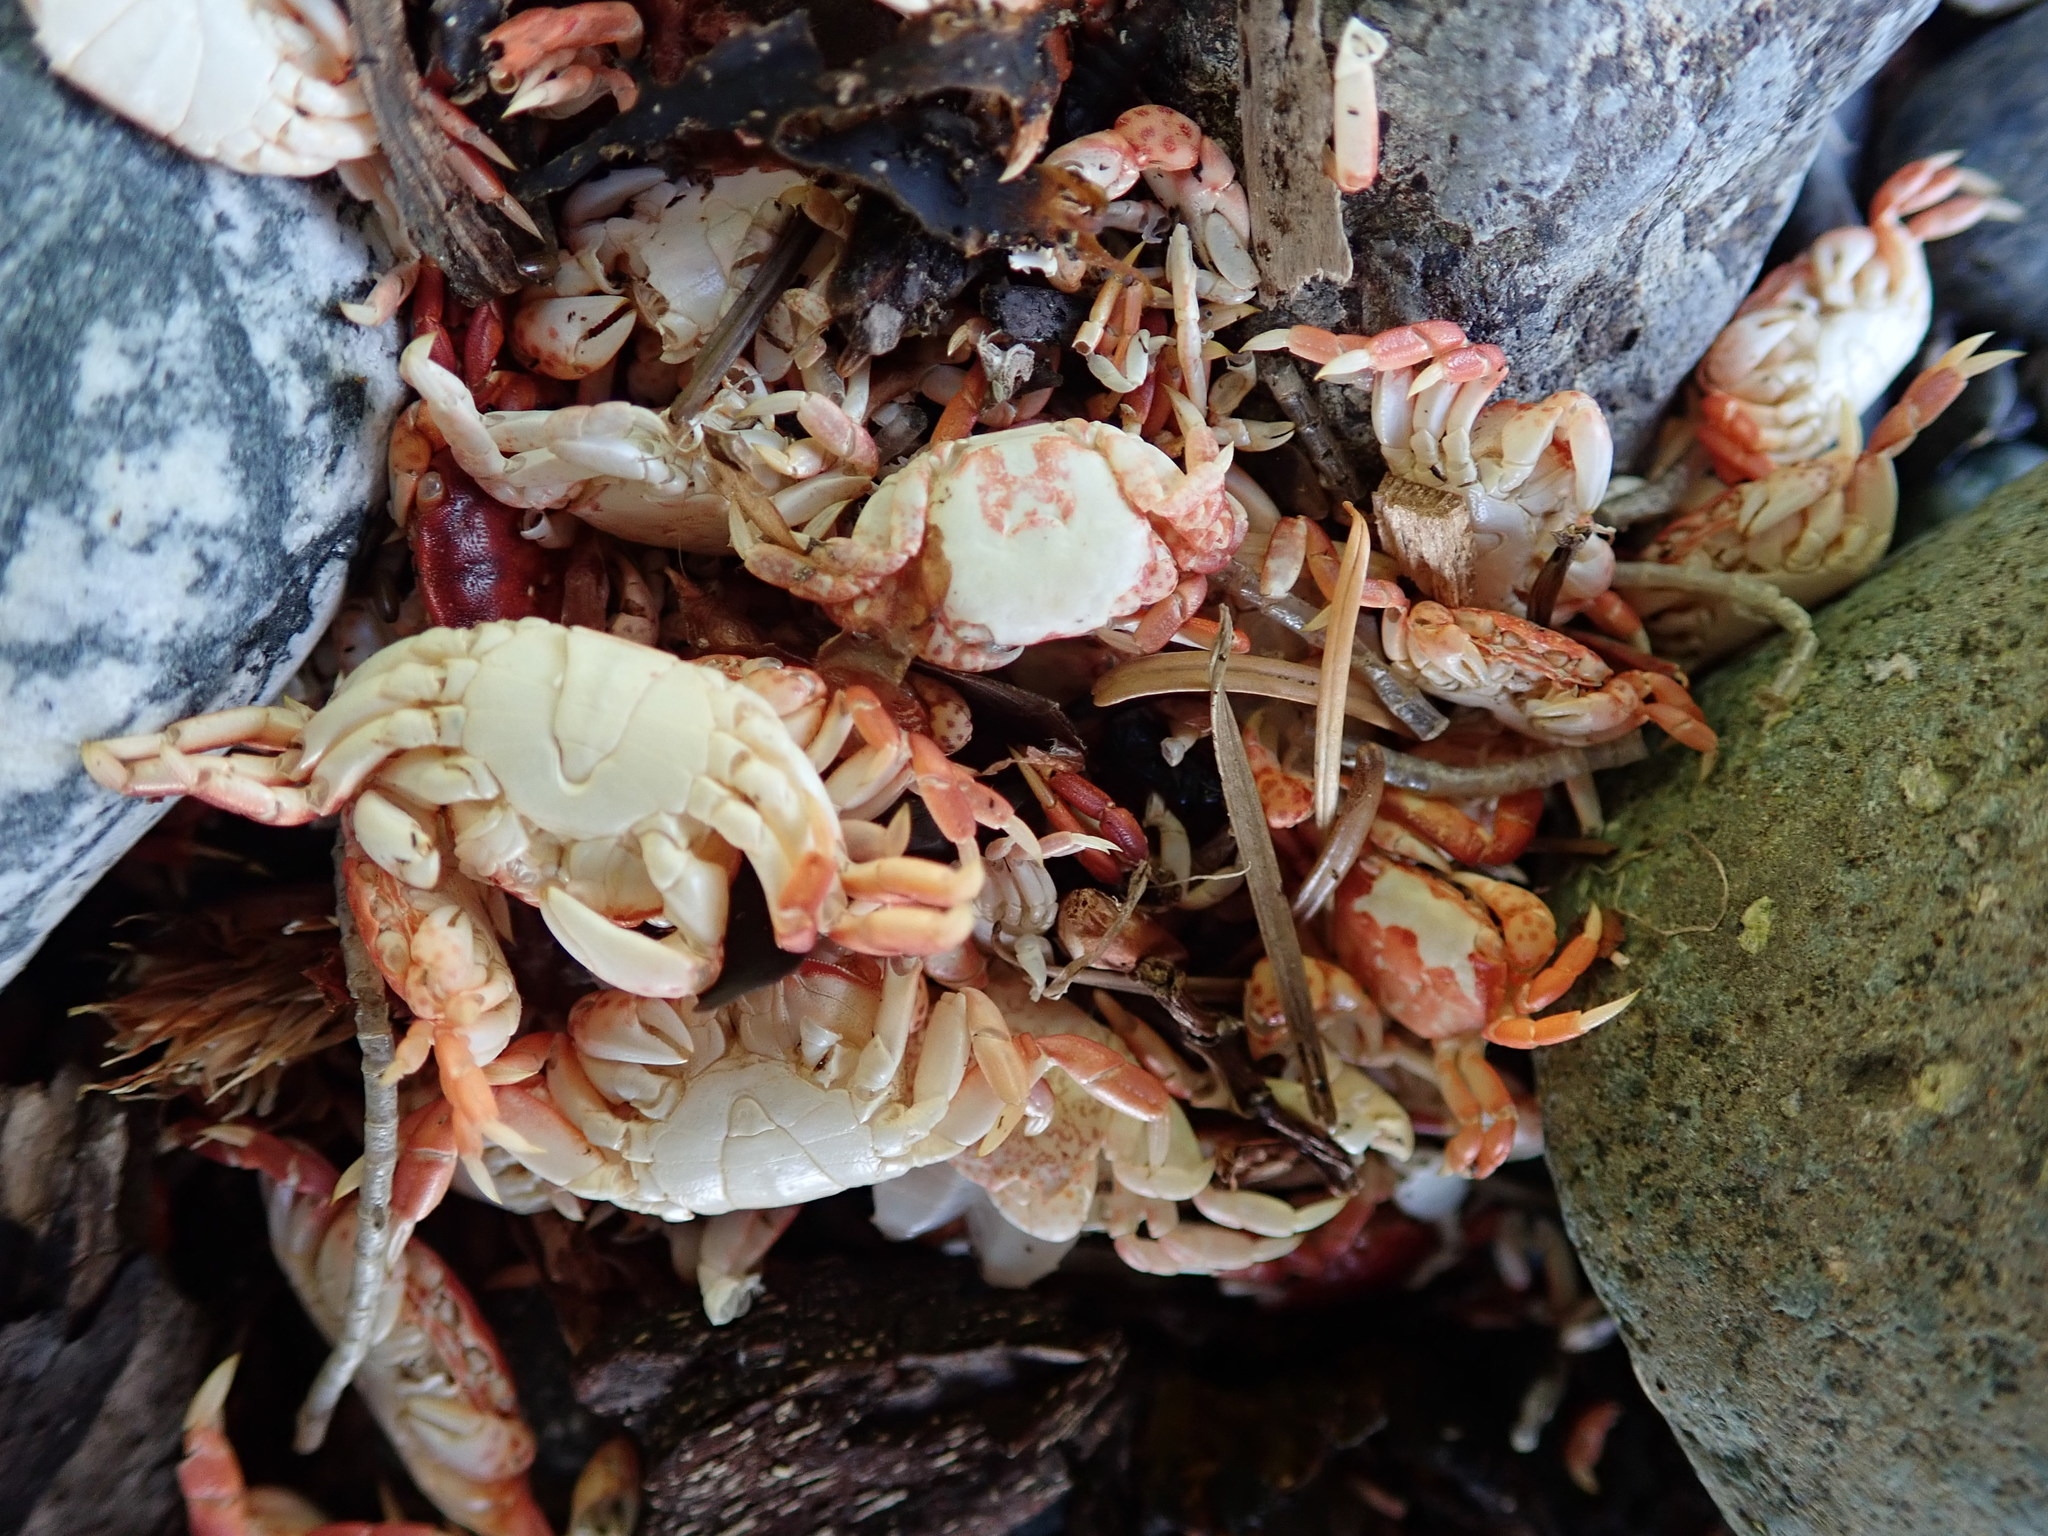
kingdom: Animalia
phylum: Arthropoda
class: Malacostraca
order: Decapoda
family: Varunidae
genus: Hemigrapsus
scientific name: Hemigrapsus nudus
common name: Purple shore crab
